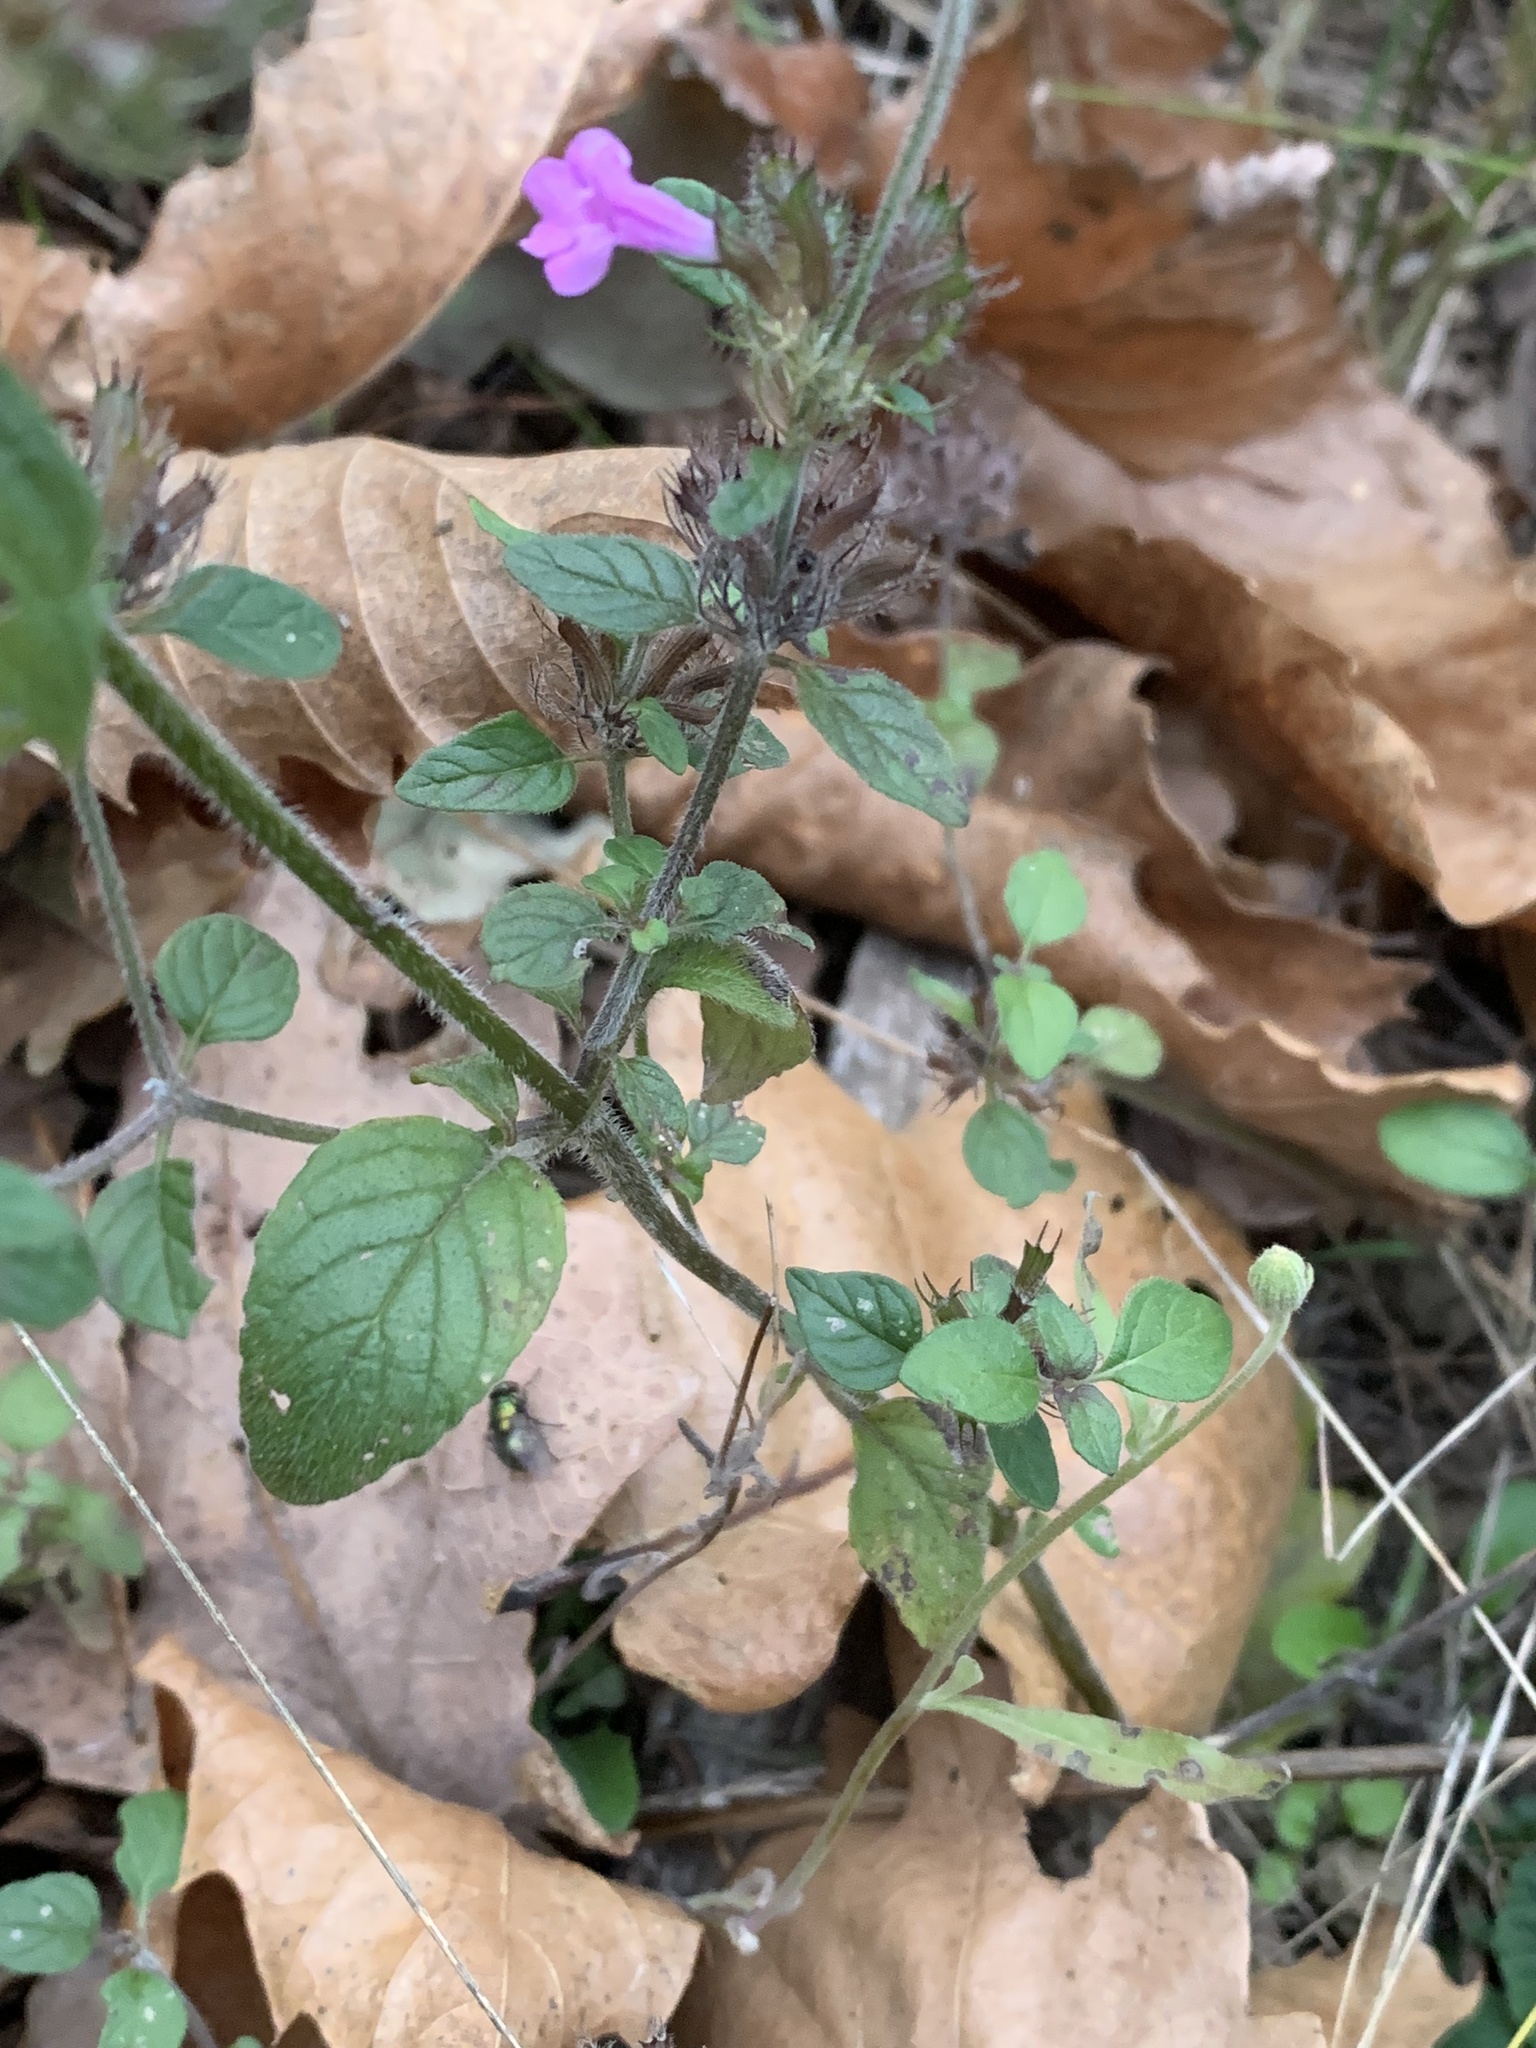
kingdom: Plantae
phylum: Tracheophyta
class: Magnoliopsida
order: Lamiales
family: Lamiaceae
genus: Clinopodium
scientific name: Clinopodium vulgare
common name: Wild basil
